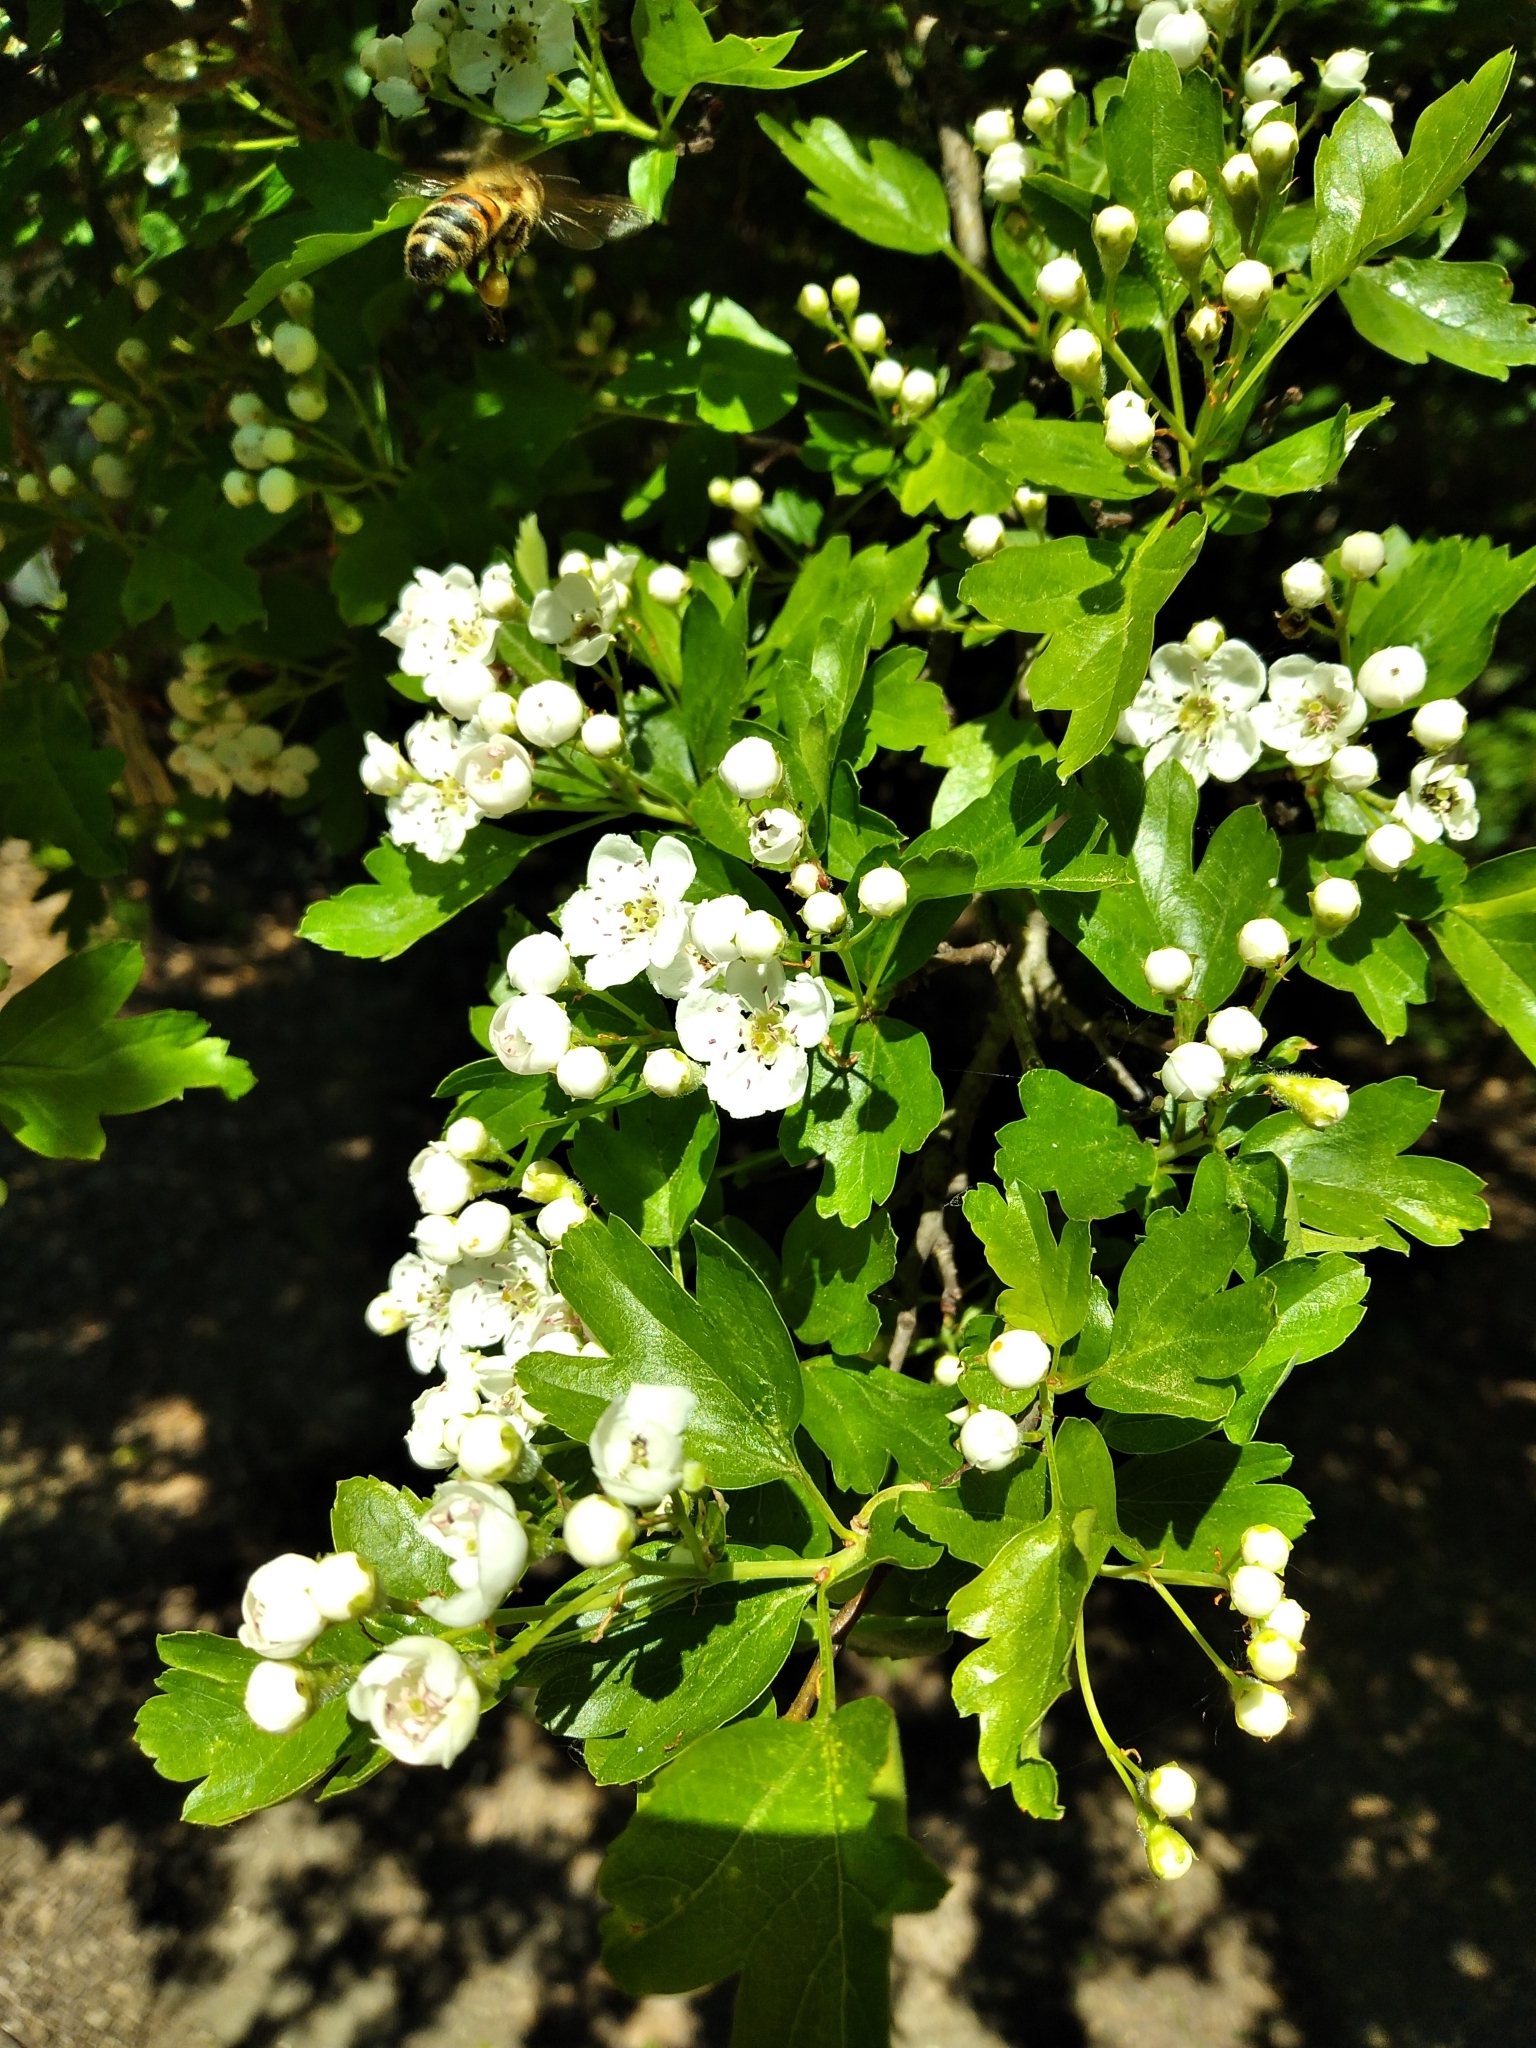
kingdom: Plantae
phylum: Tracheophyta
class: Magnoliopsida
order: Rosales
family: Rosaceae
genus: Crataegus
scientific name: Crataegus monogyna
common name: Hawthorn
